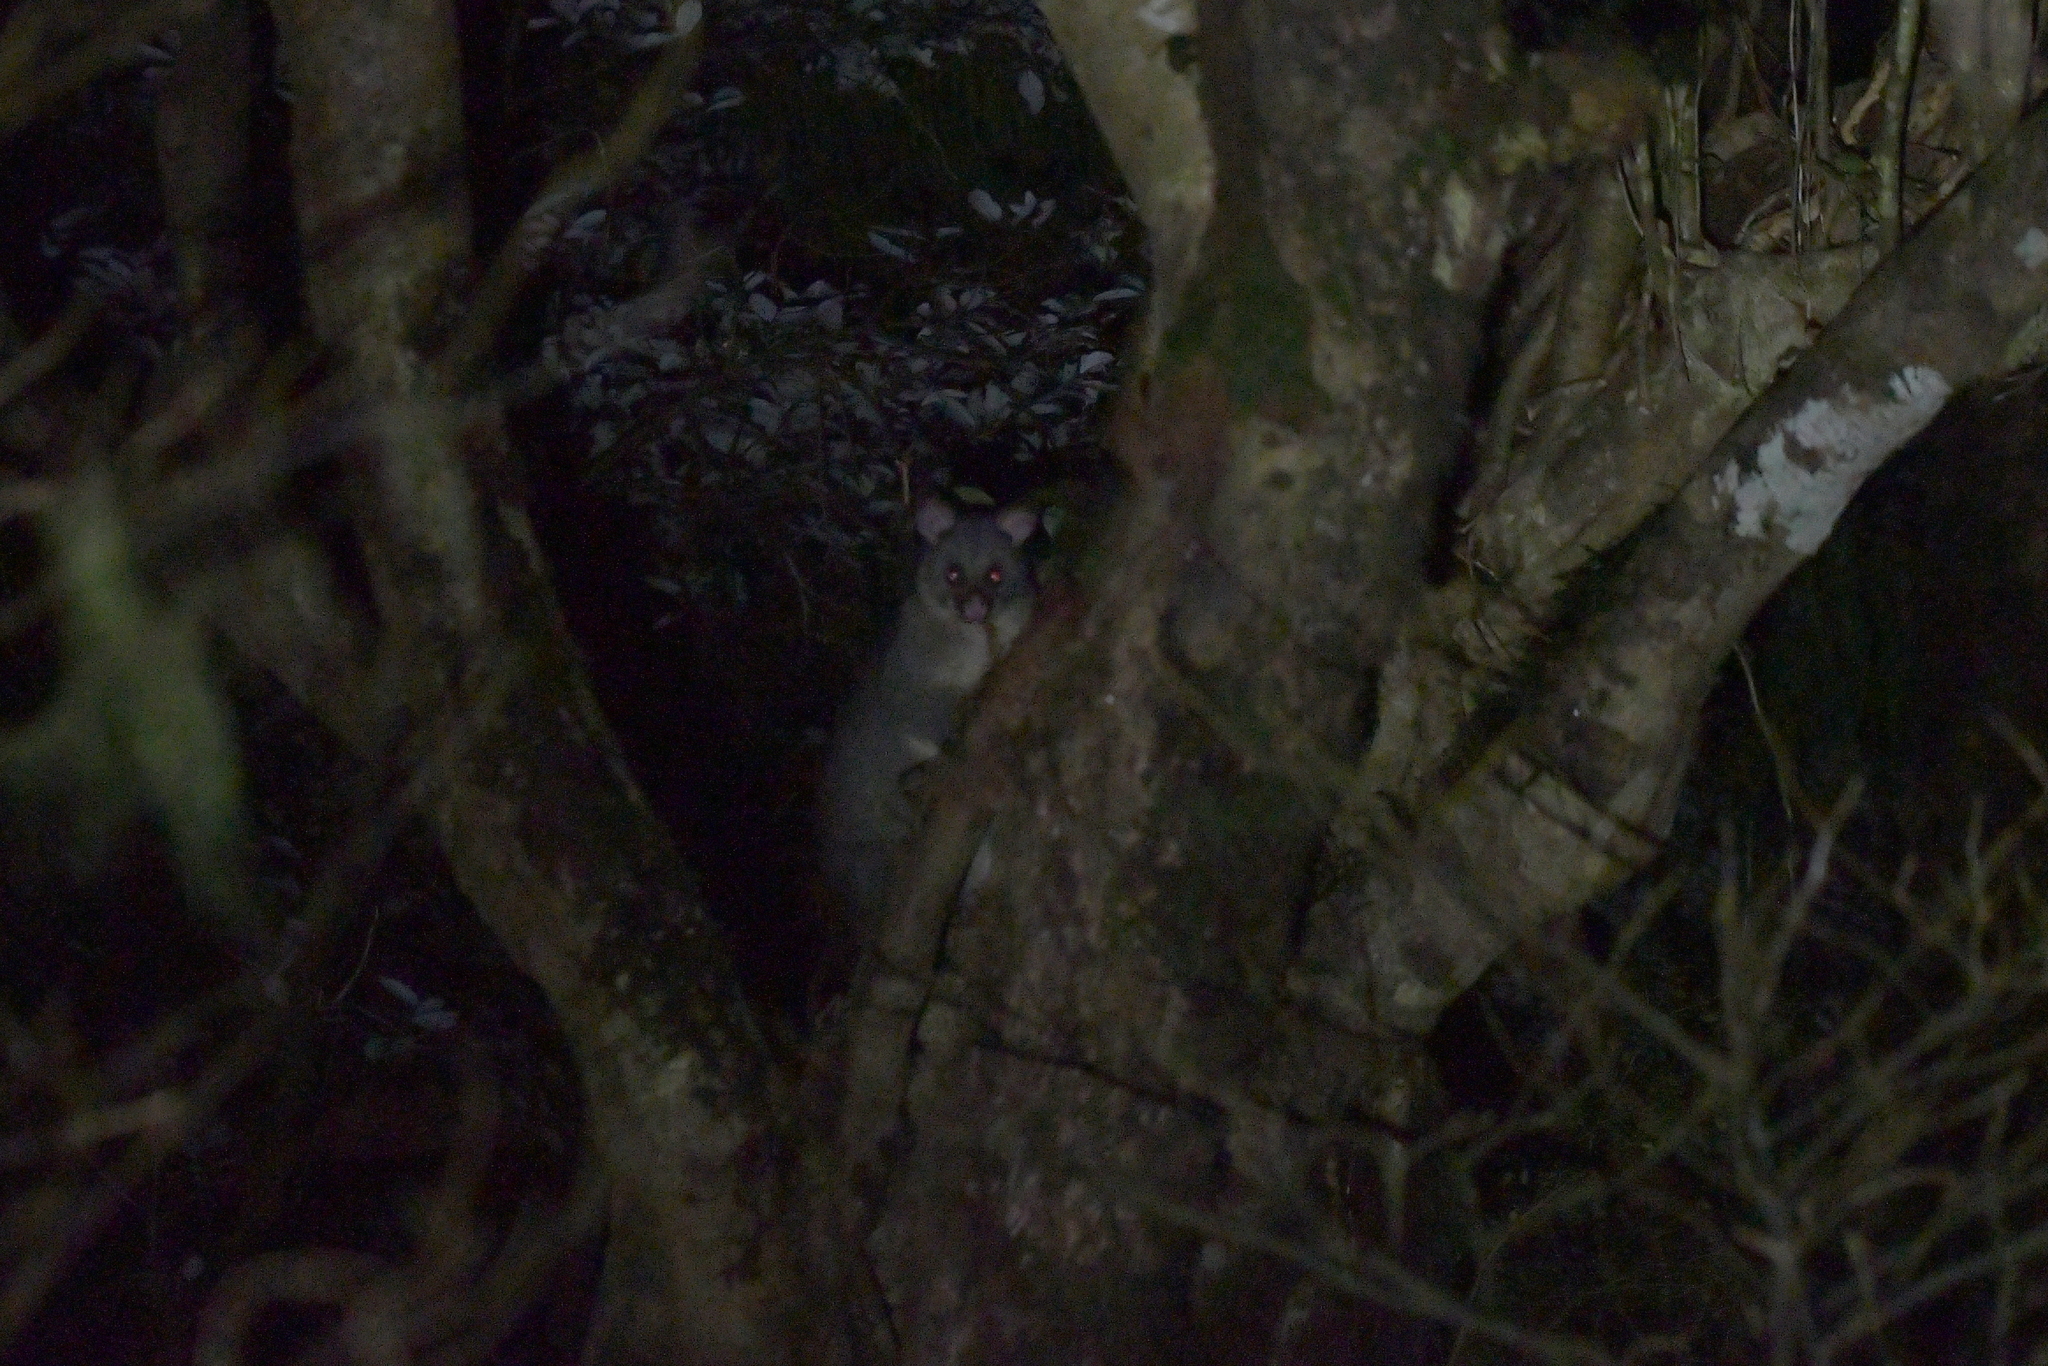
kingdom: Animalia
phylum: Chordata
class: Mammalia
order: Diprotodontia
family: Phalangeridae
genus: Trichosurus
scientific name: Trichosurus vulpecula
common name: Common brushtail
